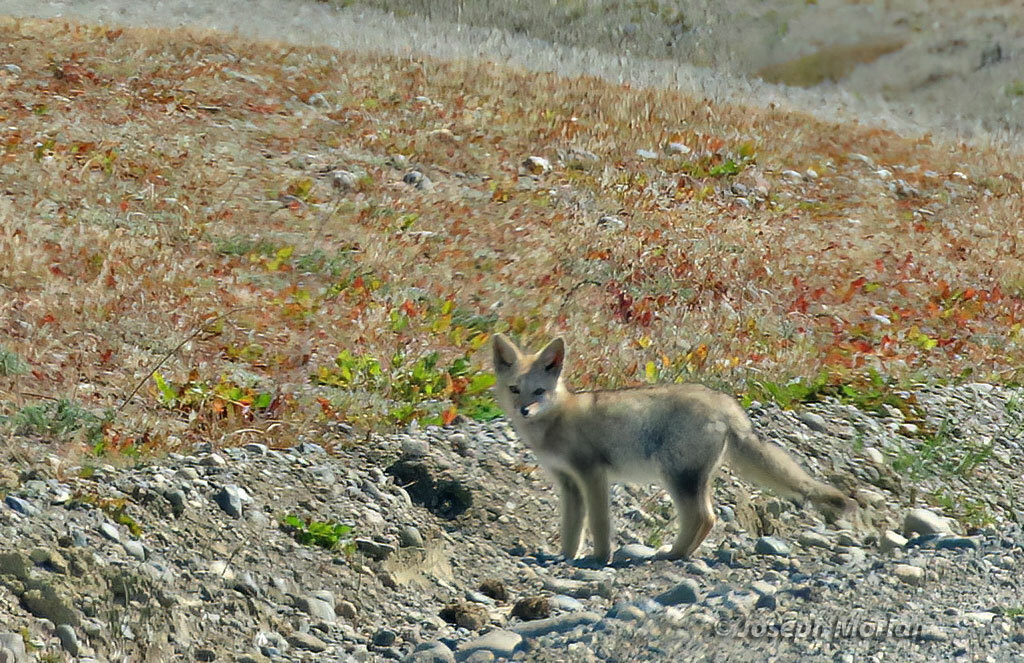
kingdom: Animalia
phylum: Chordata
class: Mammalia
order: Carnivora
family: Canidae
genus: Lycalopex
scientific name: Lycalopex gymnocercus
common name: Pampas fox
